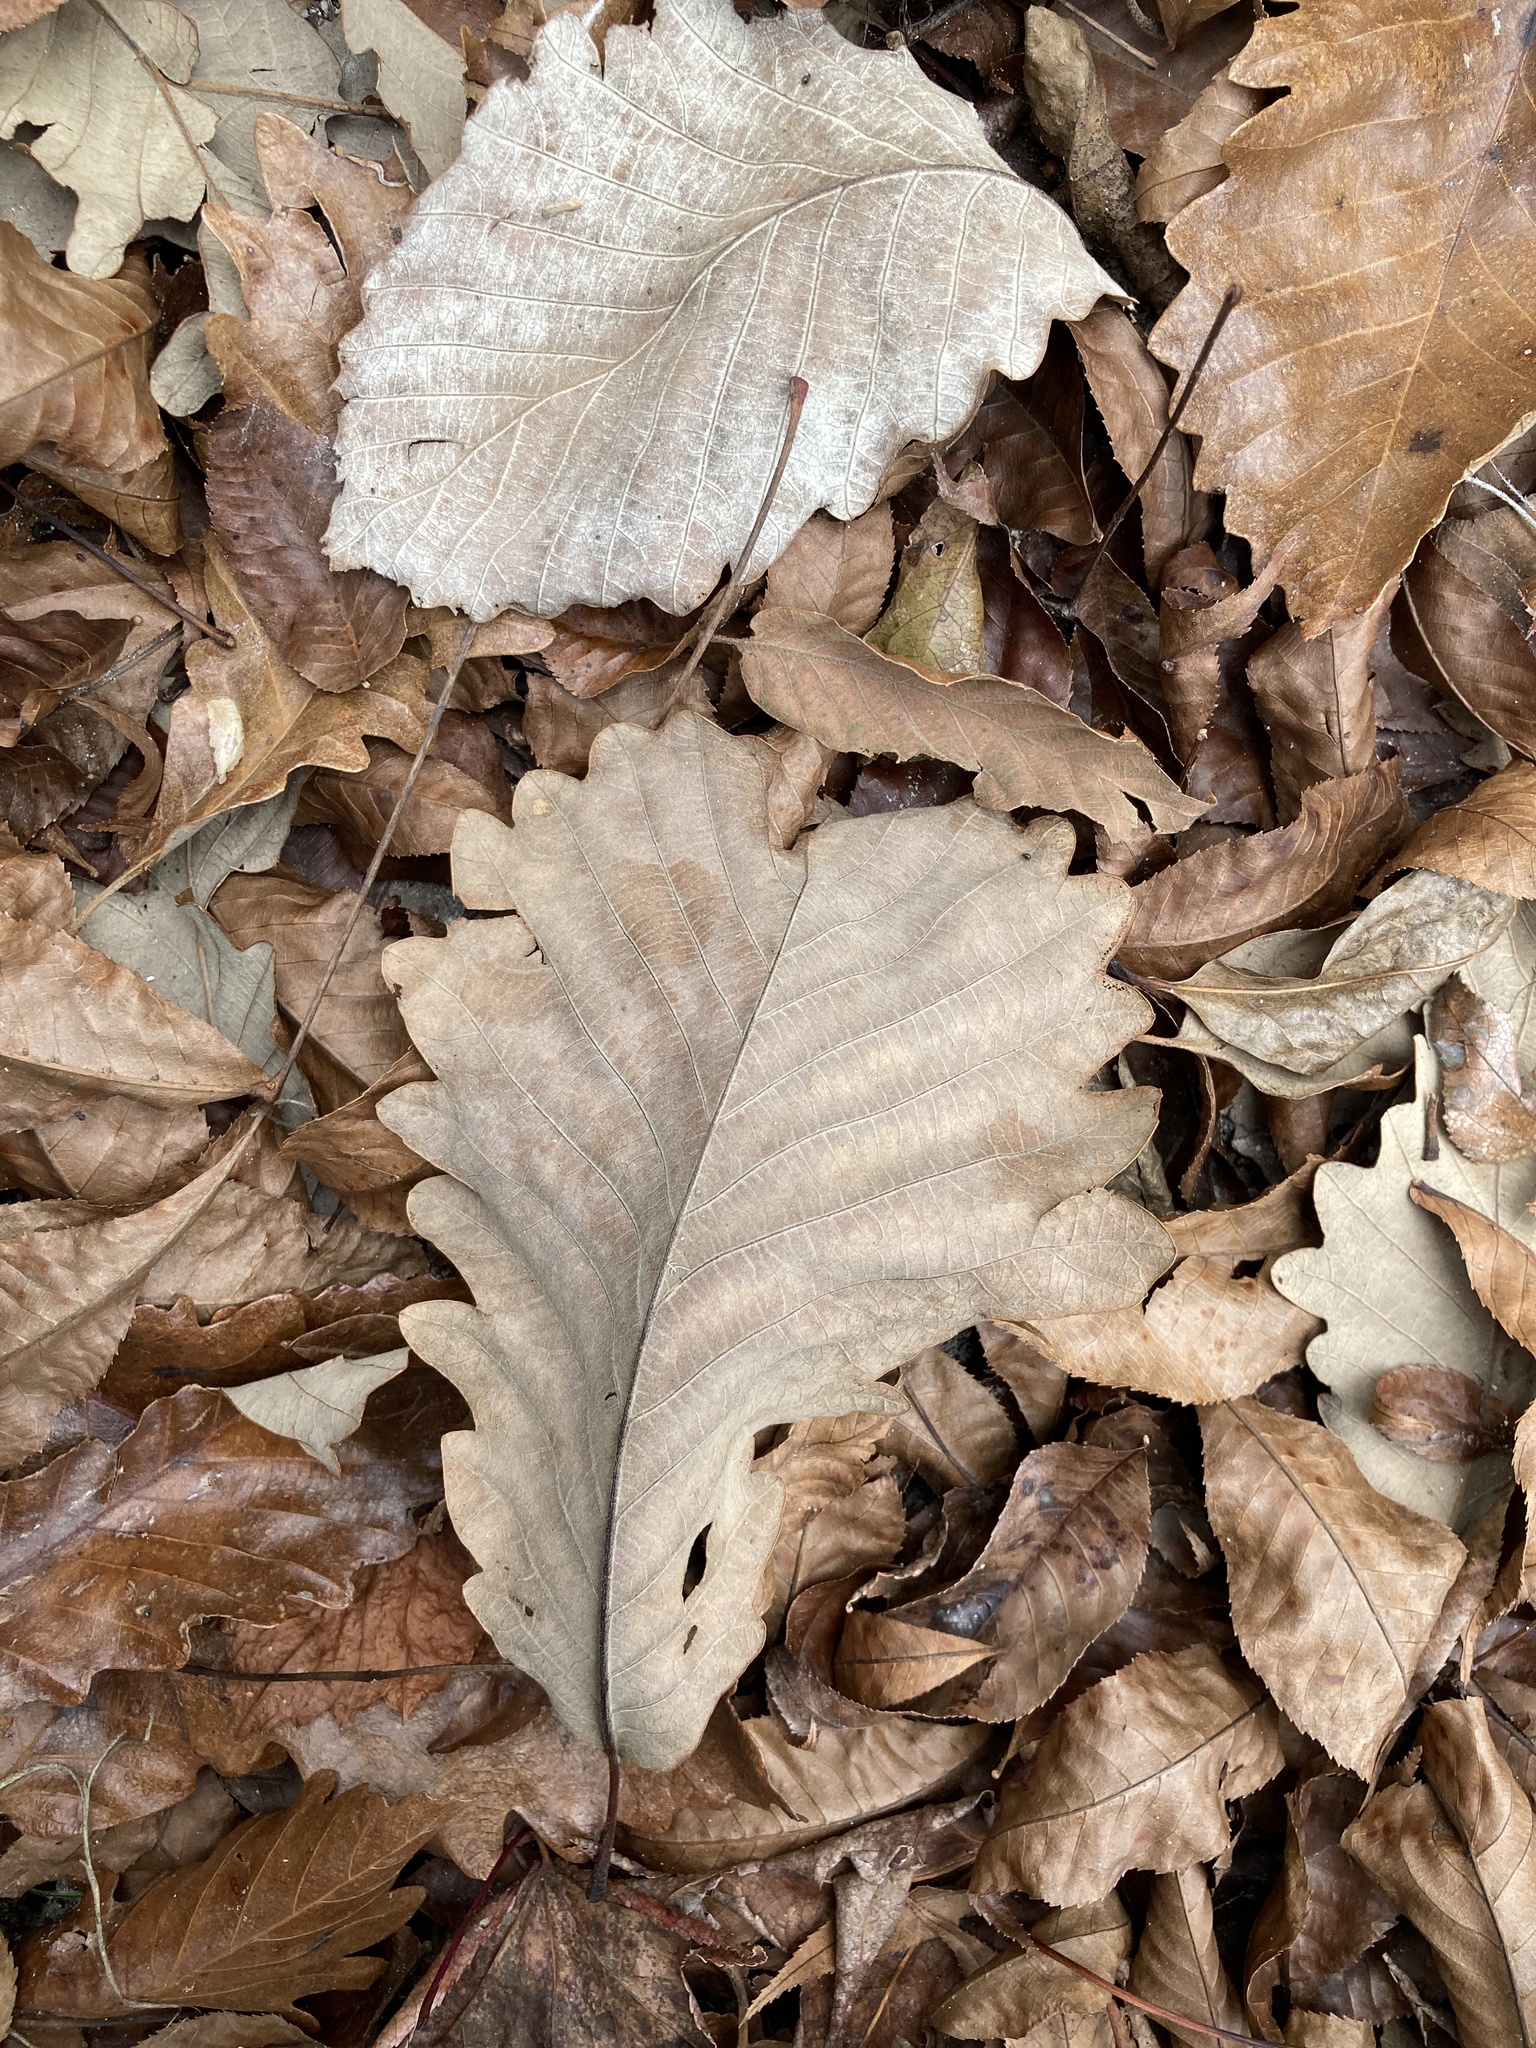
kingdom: Plantae
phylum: Tracheophyta
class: Magnoliopsida
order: Fagales
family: Fagaceae
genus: Quercus
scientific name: Quercus michauxii
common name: Swamp chestnut oak
